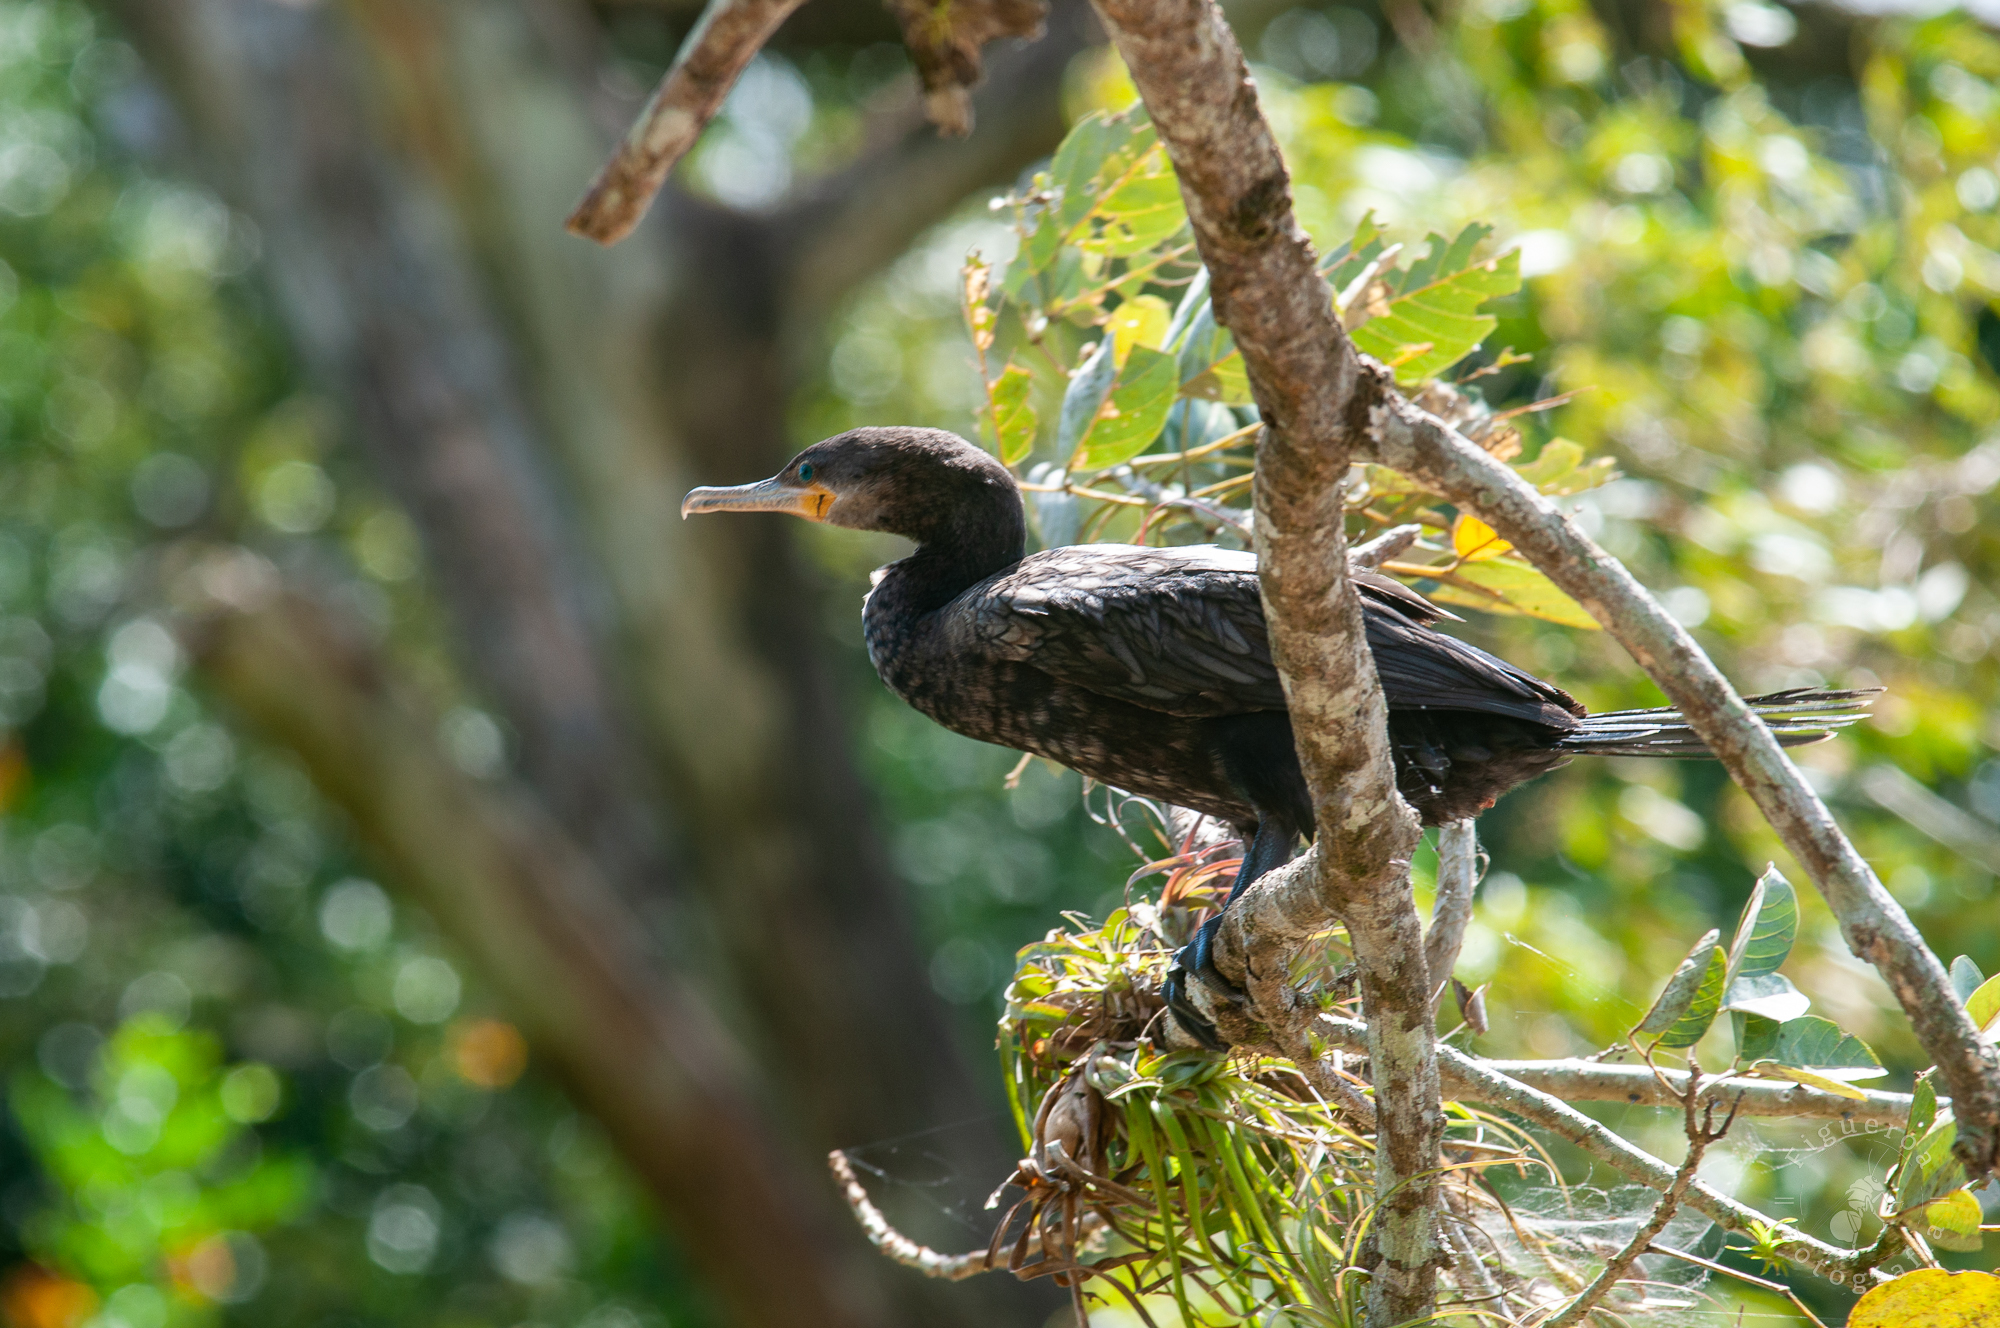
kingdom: Animalia
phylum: Chordata
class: Aves
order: Suliformes
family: Phalacrocoracidae
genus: Phalacrocorax
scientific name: Phalacrocorax brasilianus
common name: Neotropic cormorant
